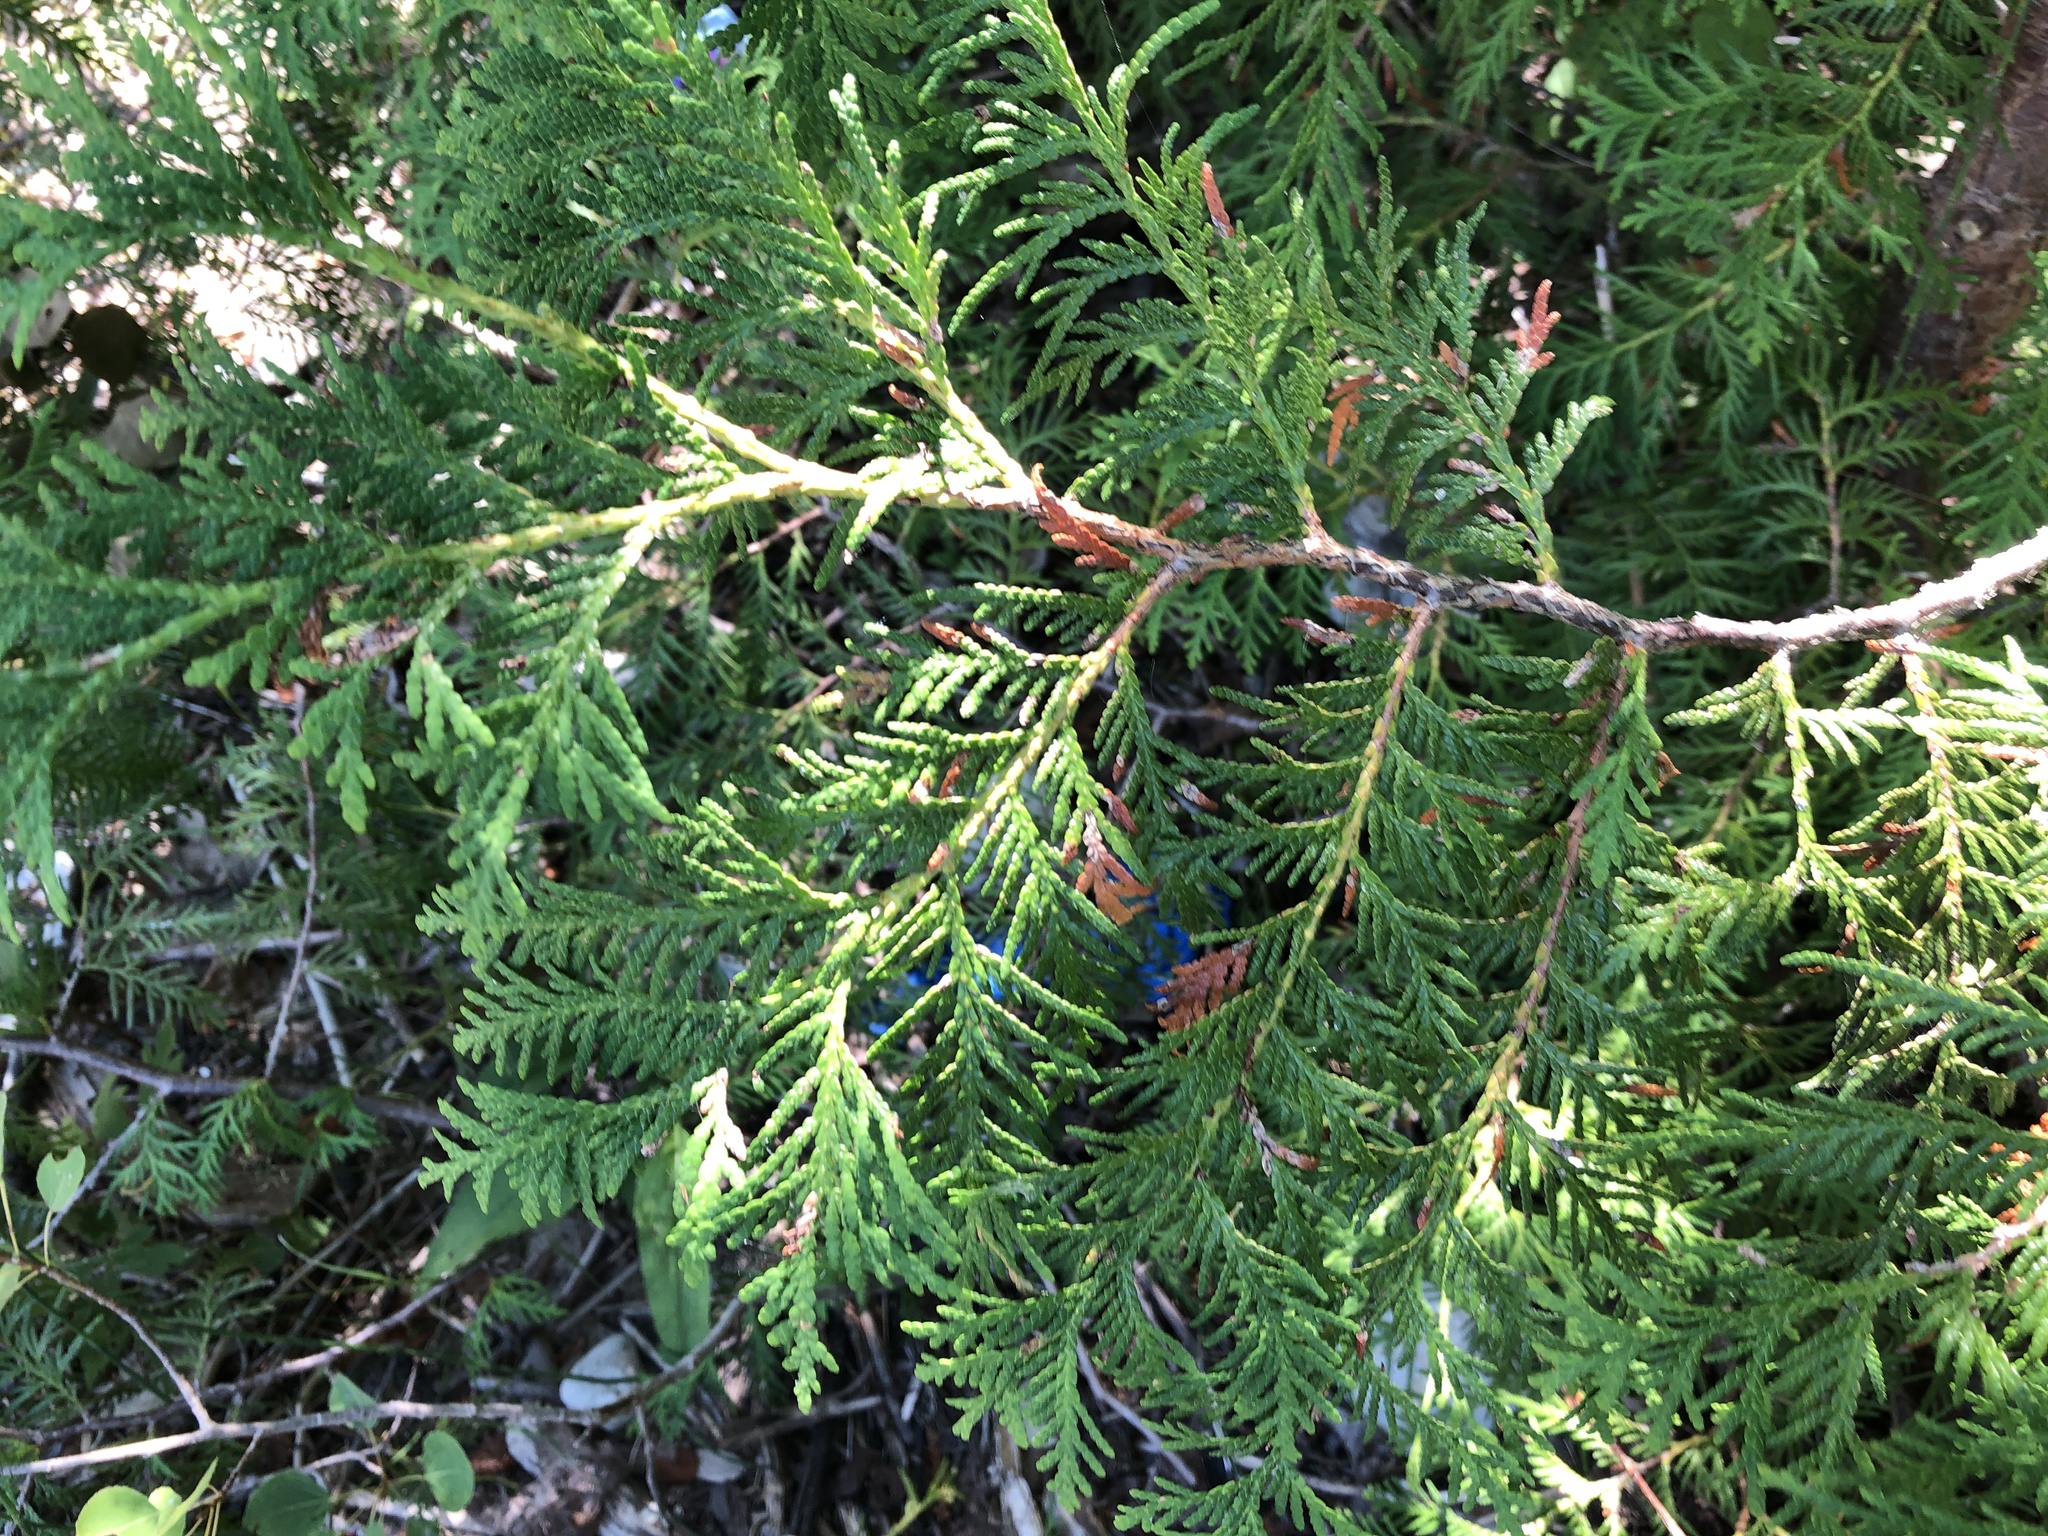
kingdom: Plantae
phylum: Tracheophyta
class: Pinopsida
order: Pinales
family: Cupressaceae
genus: Thuja
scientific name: Thuja occidentalis
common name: Northern white-cedar
